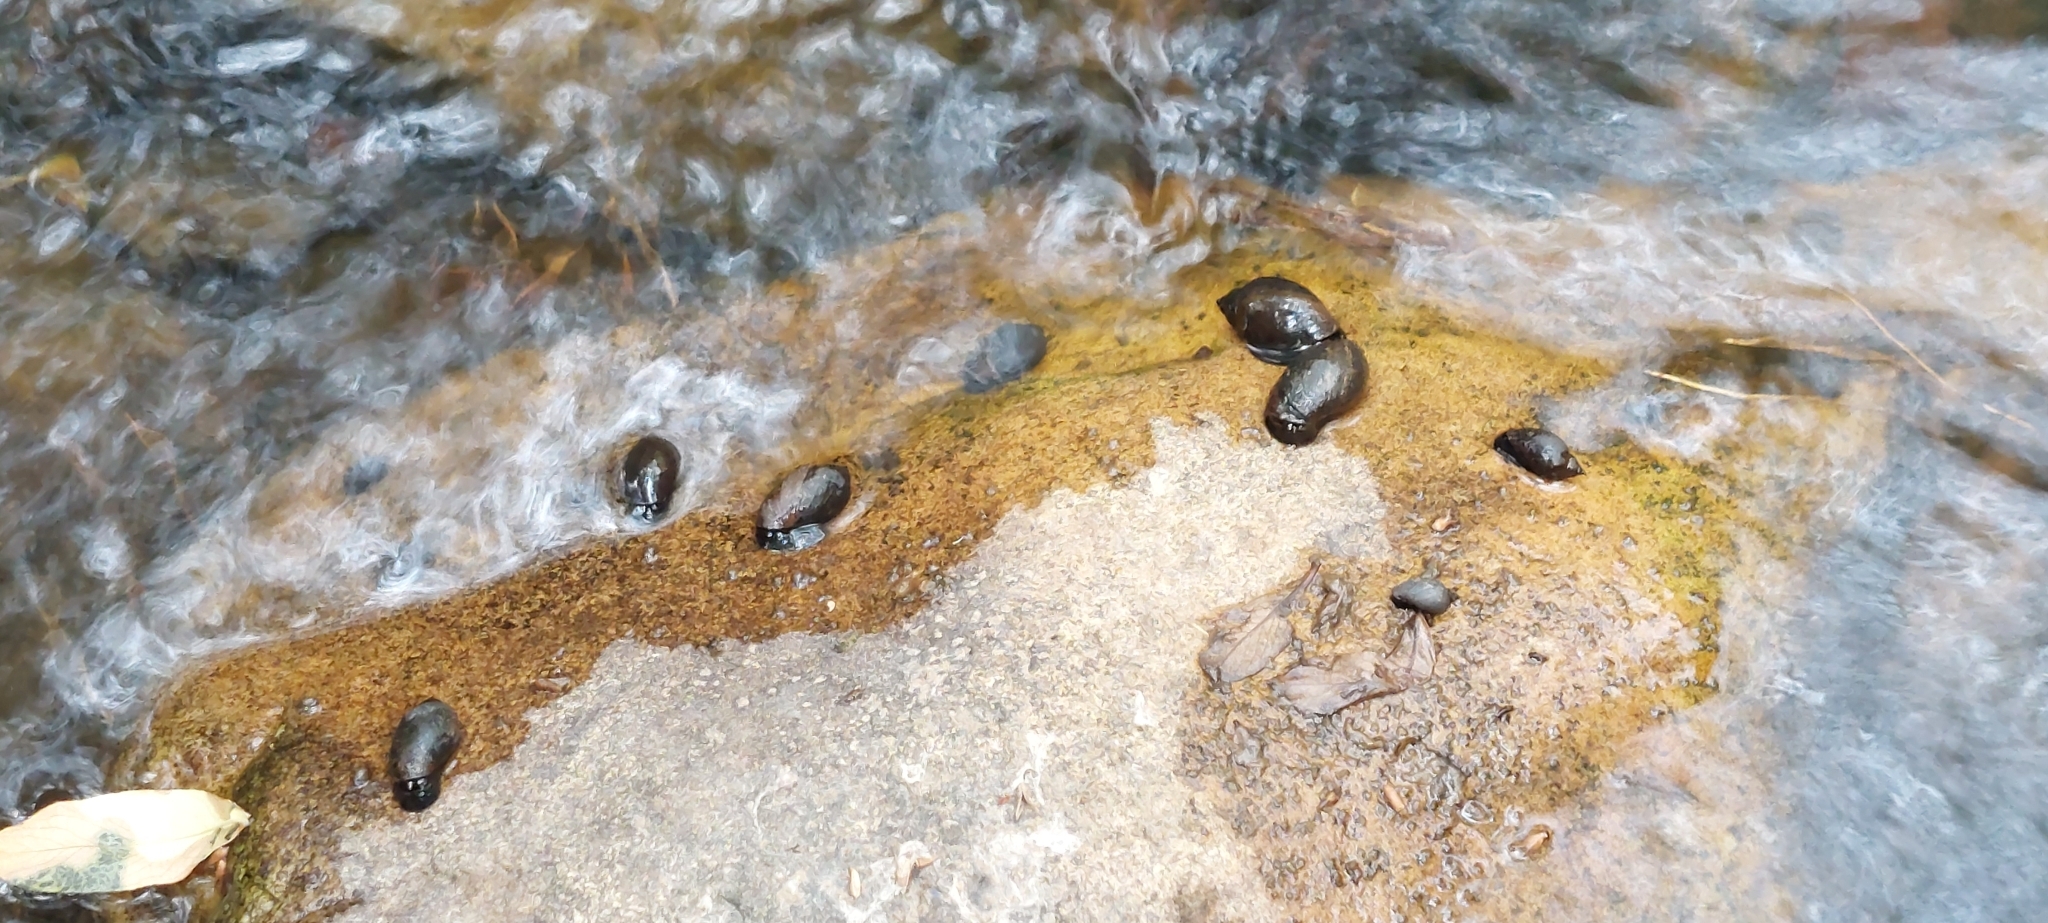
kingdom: Animalia
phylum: Mollusca
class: Gastropoda
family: Chilinidae
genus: Chilina
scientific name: Chilina parchappii
